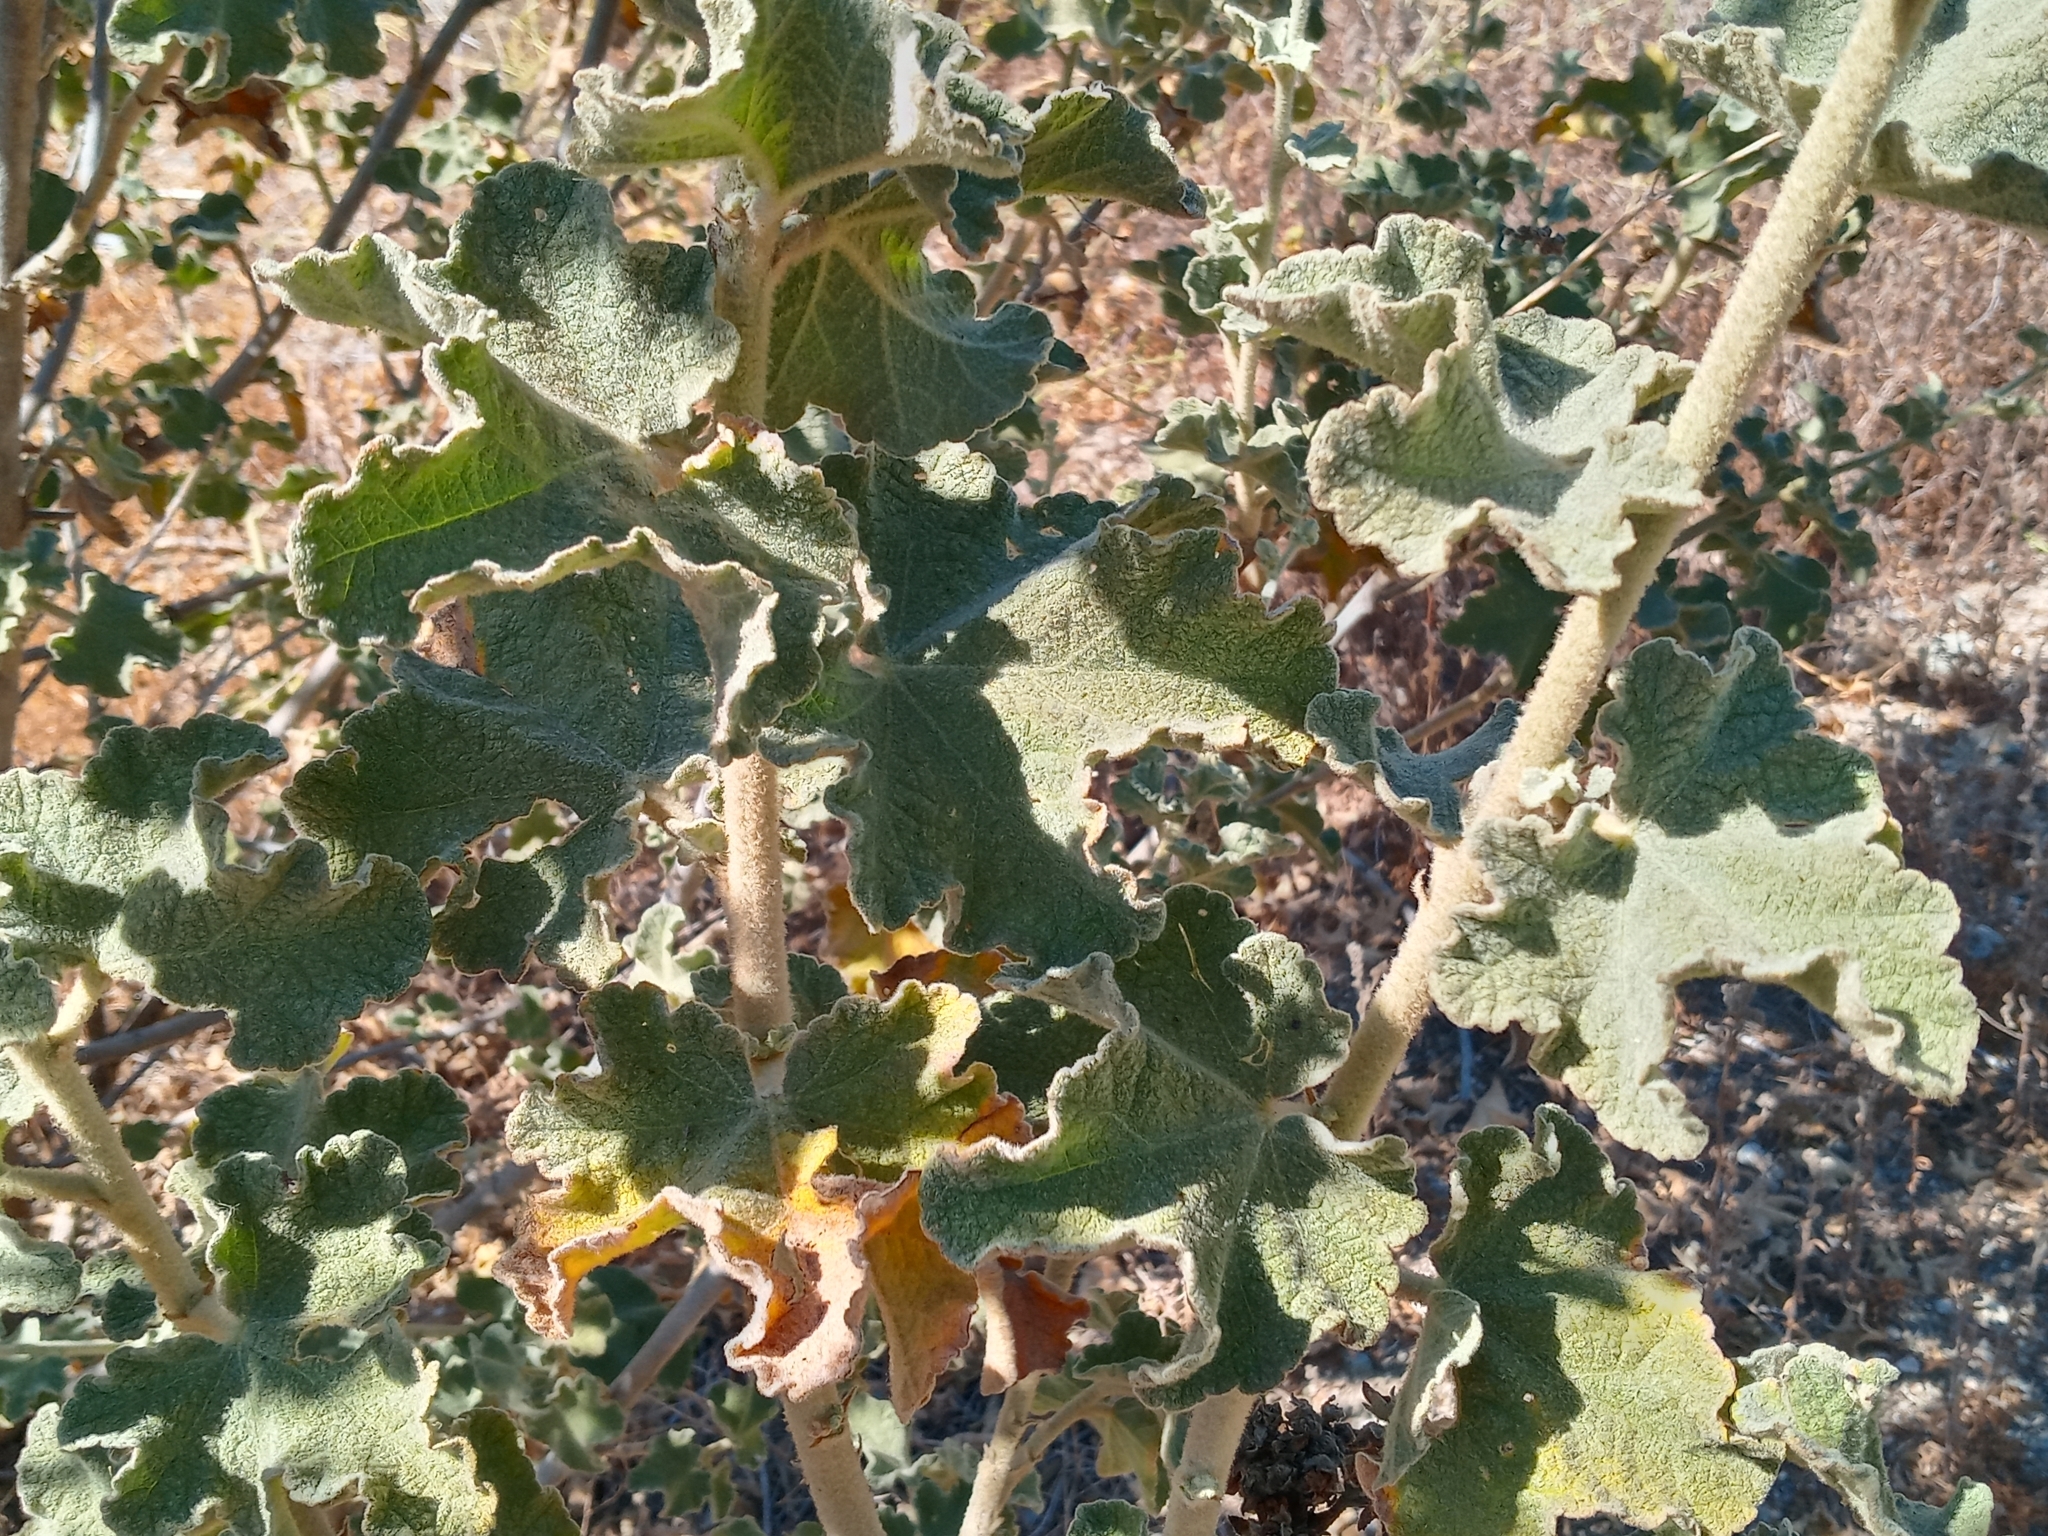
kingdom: Plantae
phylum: Tracheophyta
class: Magnoliopsida
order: Malvales
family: Malvaceae
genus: Malacothamnus
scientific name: Malacothamnus davidsonii
